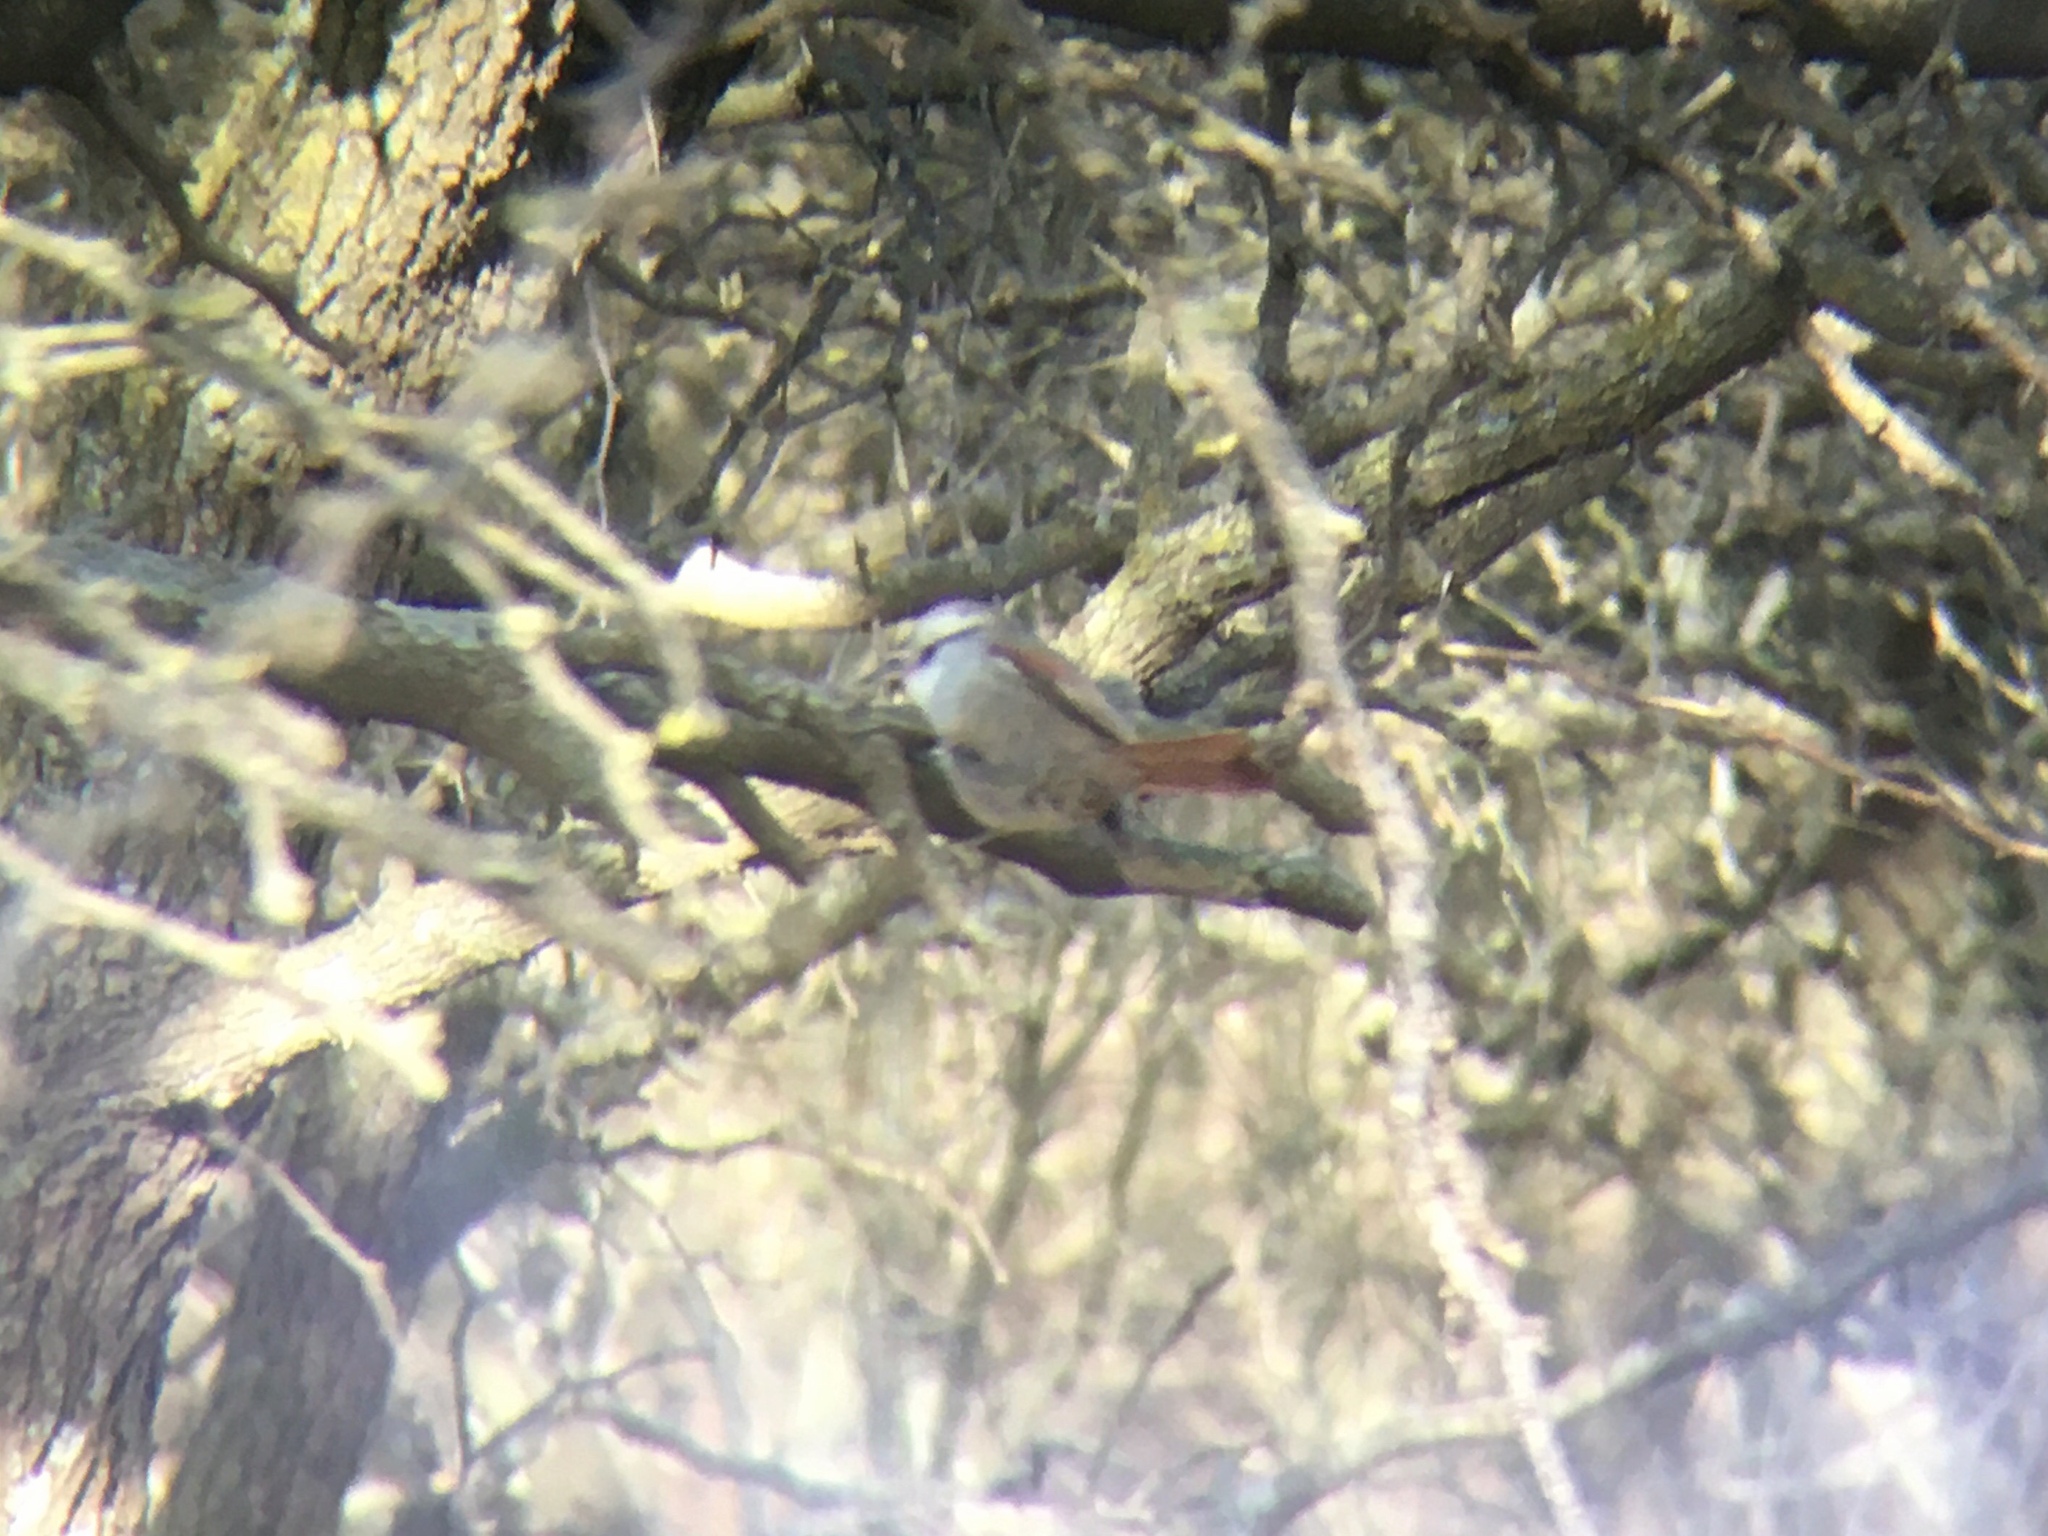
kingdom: Animalia
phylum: Chordata
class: Aves
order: Passeriformes
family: Furnariidae
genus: Cranioleuca
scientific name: Cranioleuca pyrrhophia
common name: Stripe-crowned spinetail
